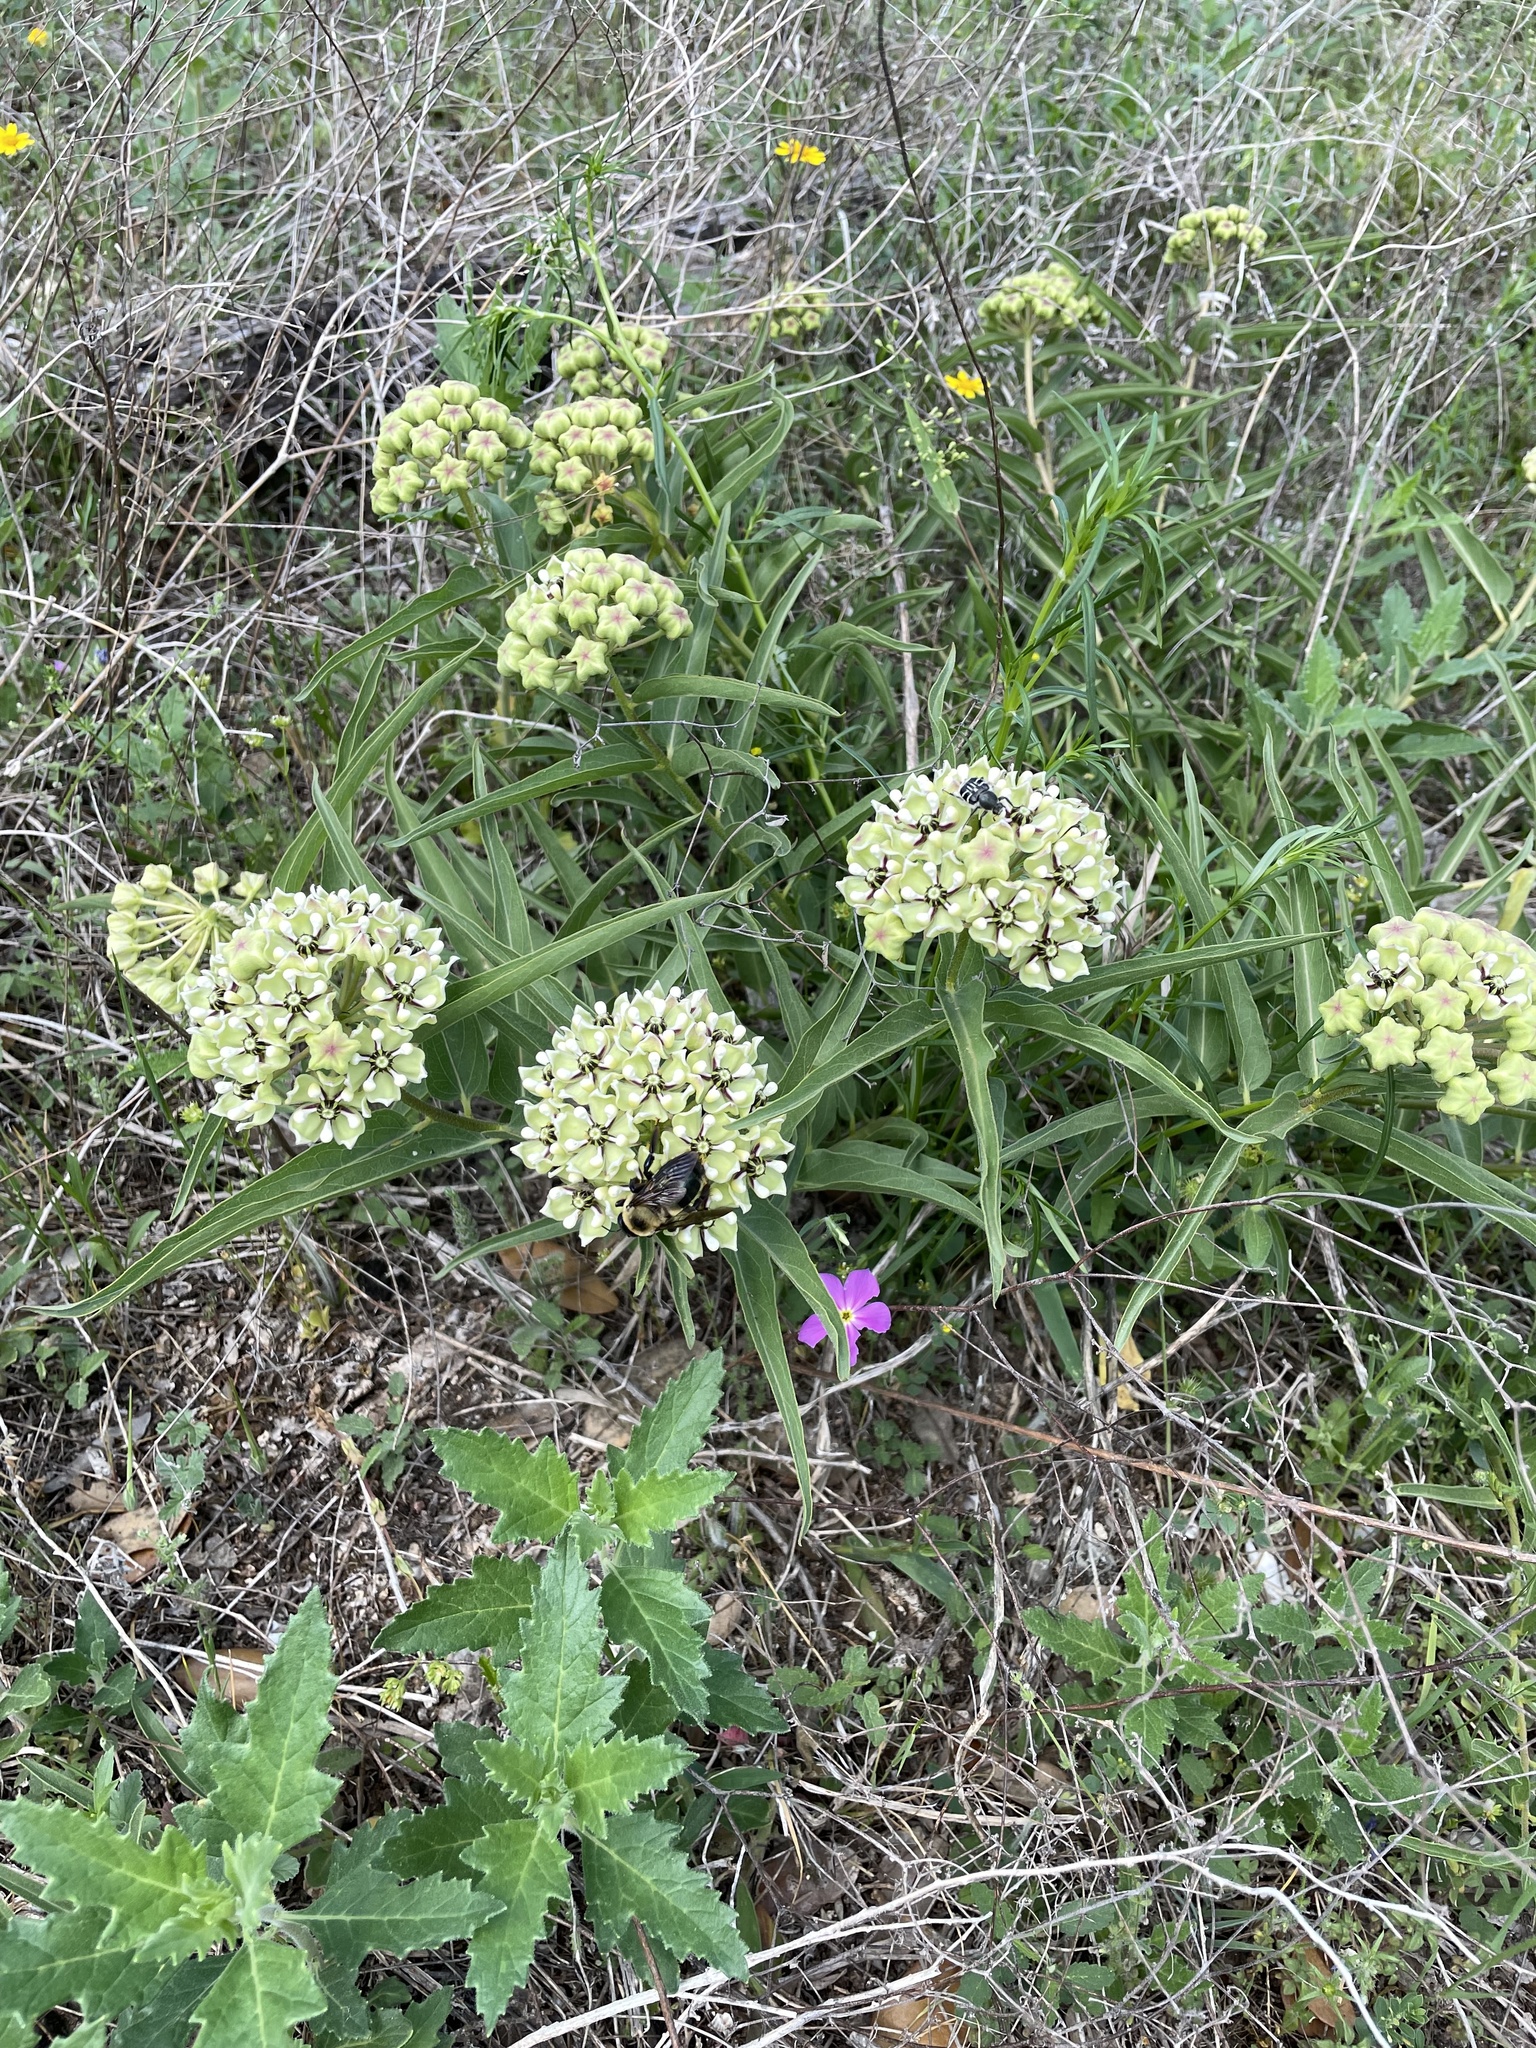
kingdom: Plantae
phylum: Tracheophyta
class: Magnoliopsida
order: Gentianales
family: Apocynaceae
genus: Asclepias
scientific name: Asclepias asperula
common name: Antelope horns
